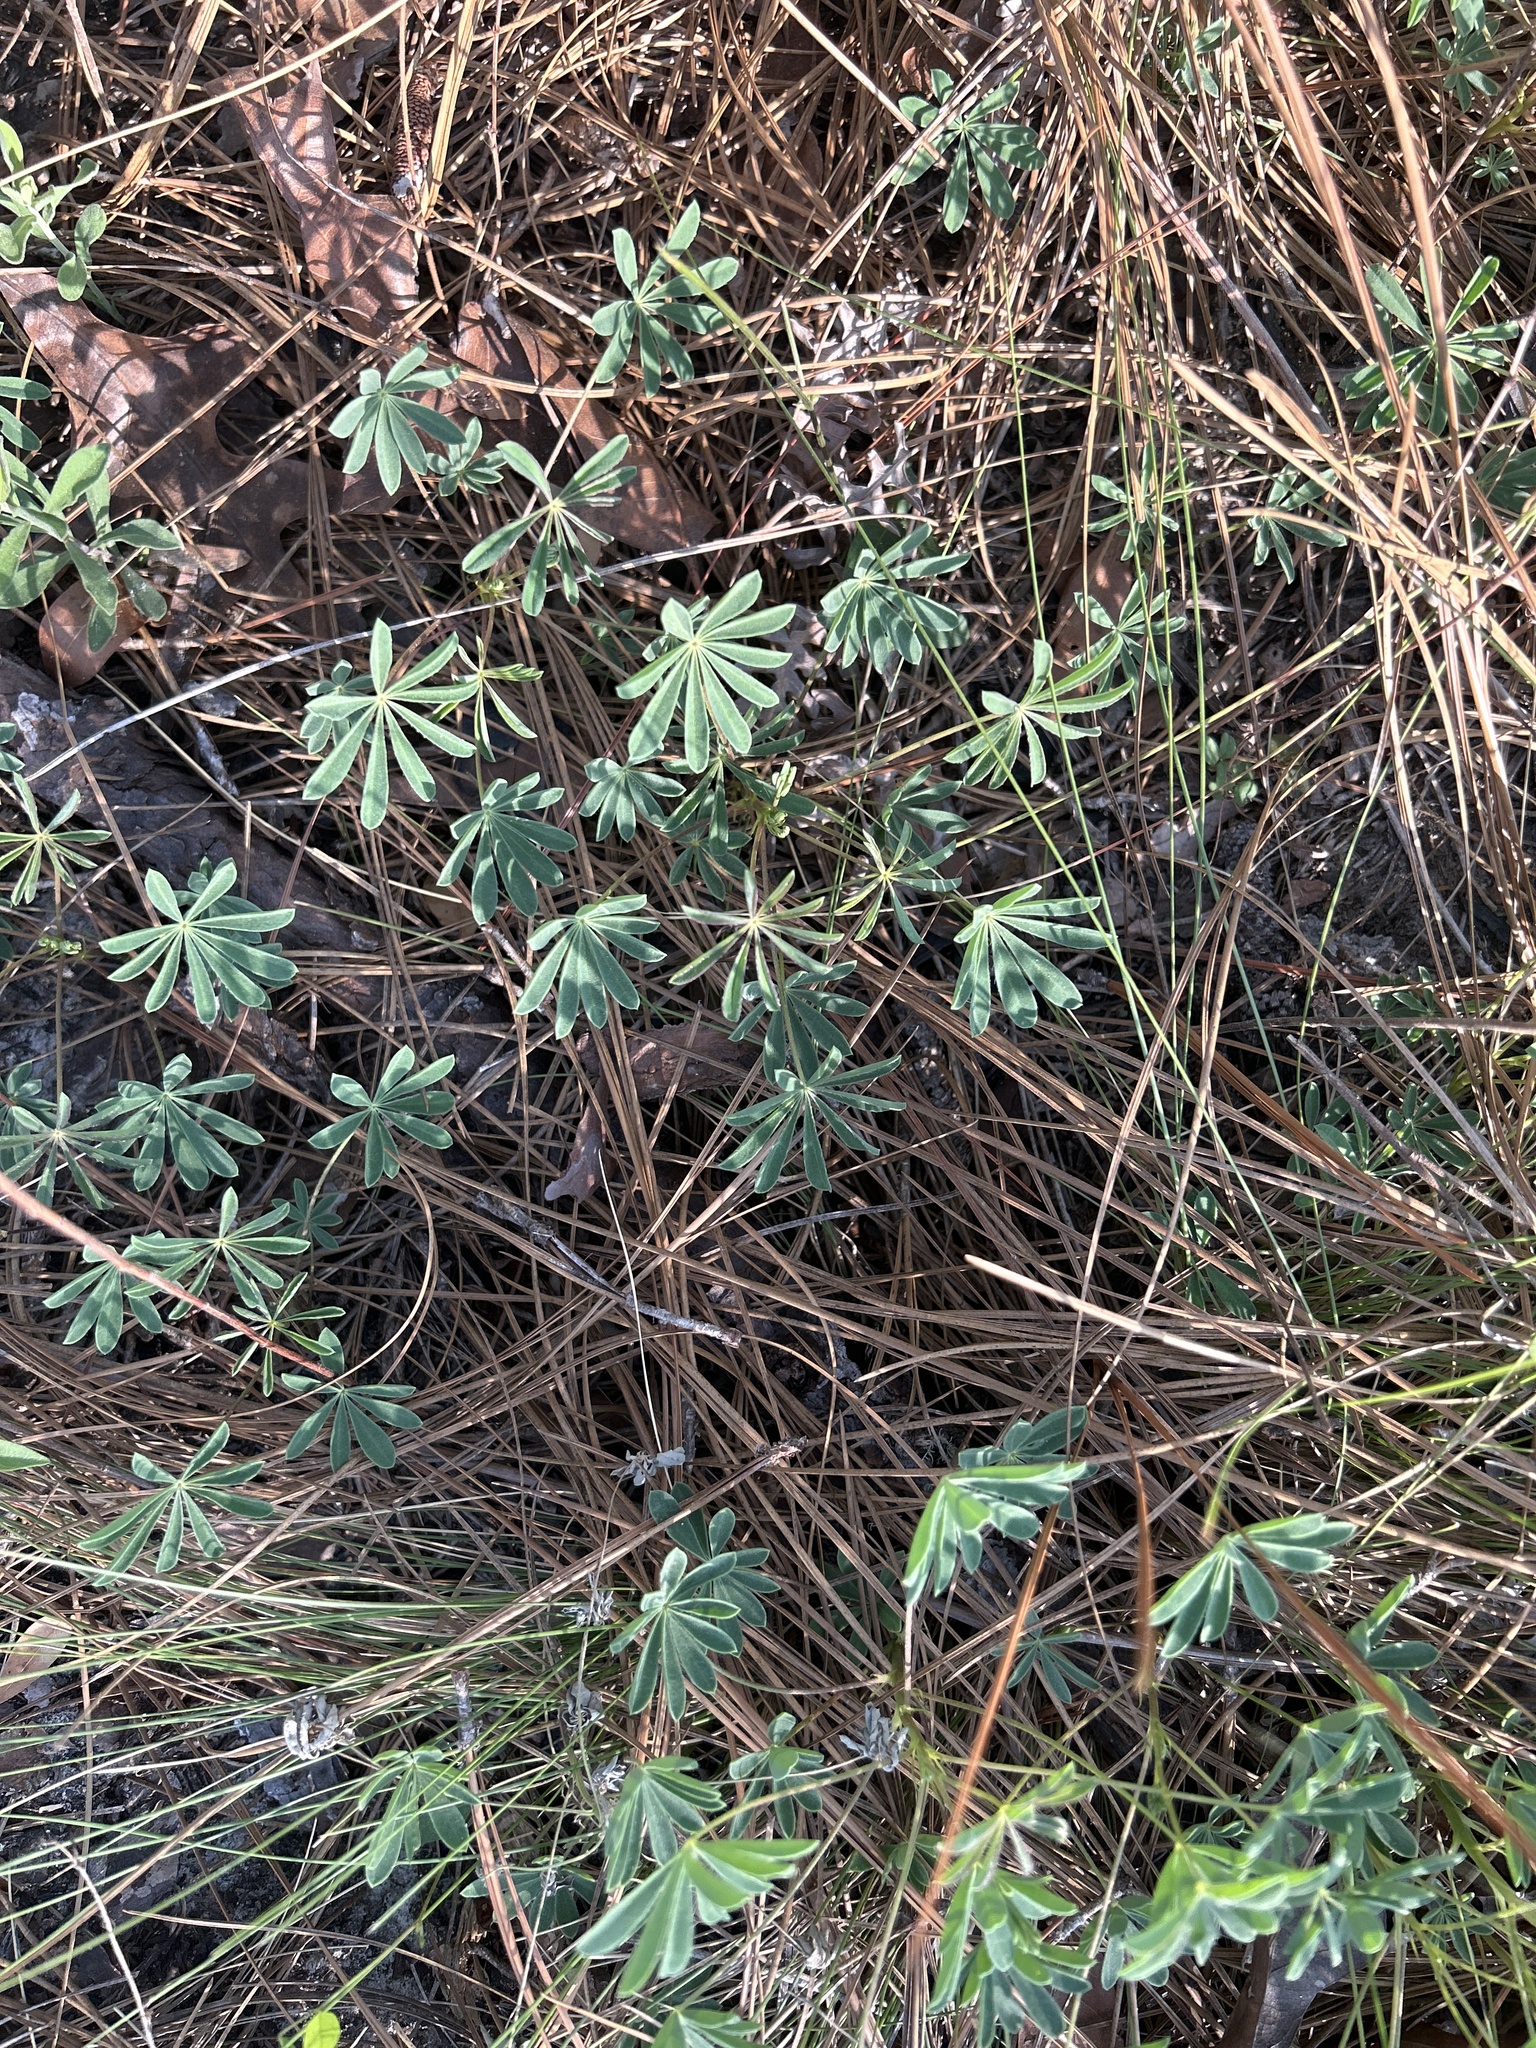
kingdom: Plantae
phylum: Tracheophyta
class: Magnoliopsida
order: Fabales
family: Fabaceae
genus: Lupinus
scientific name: Lupinus perennis
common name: Sundial lupine
